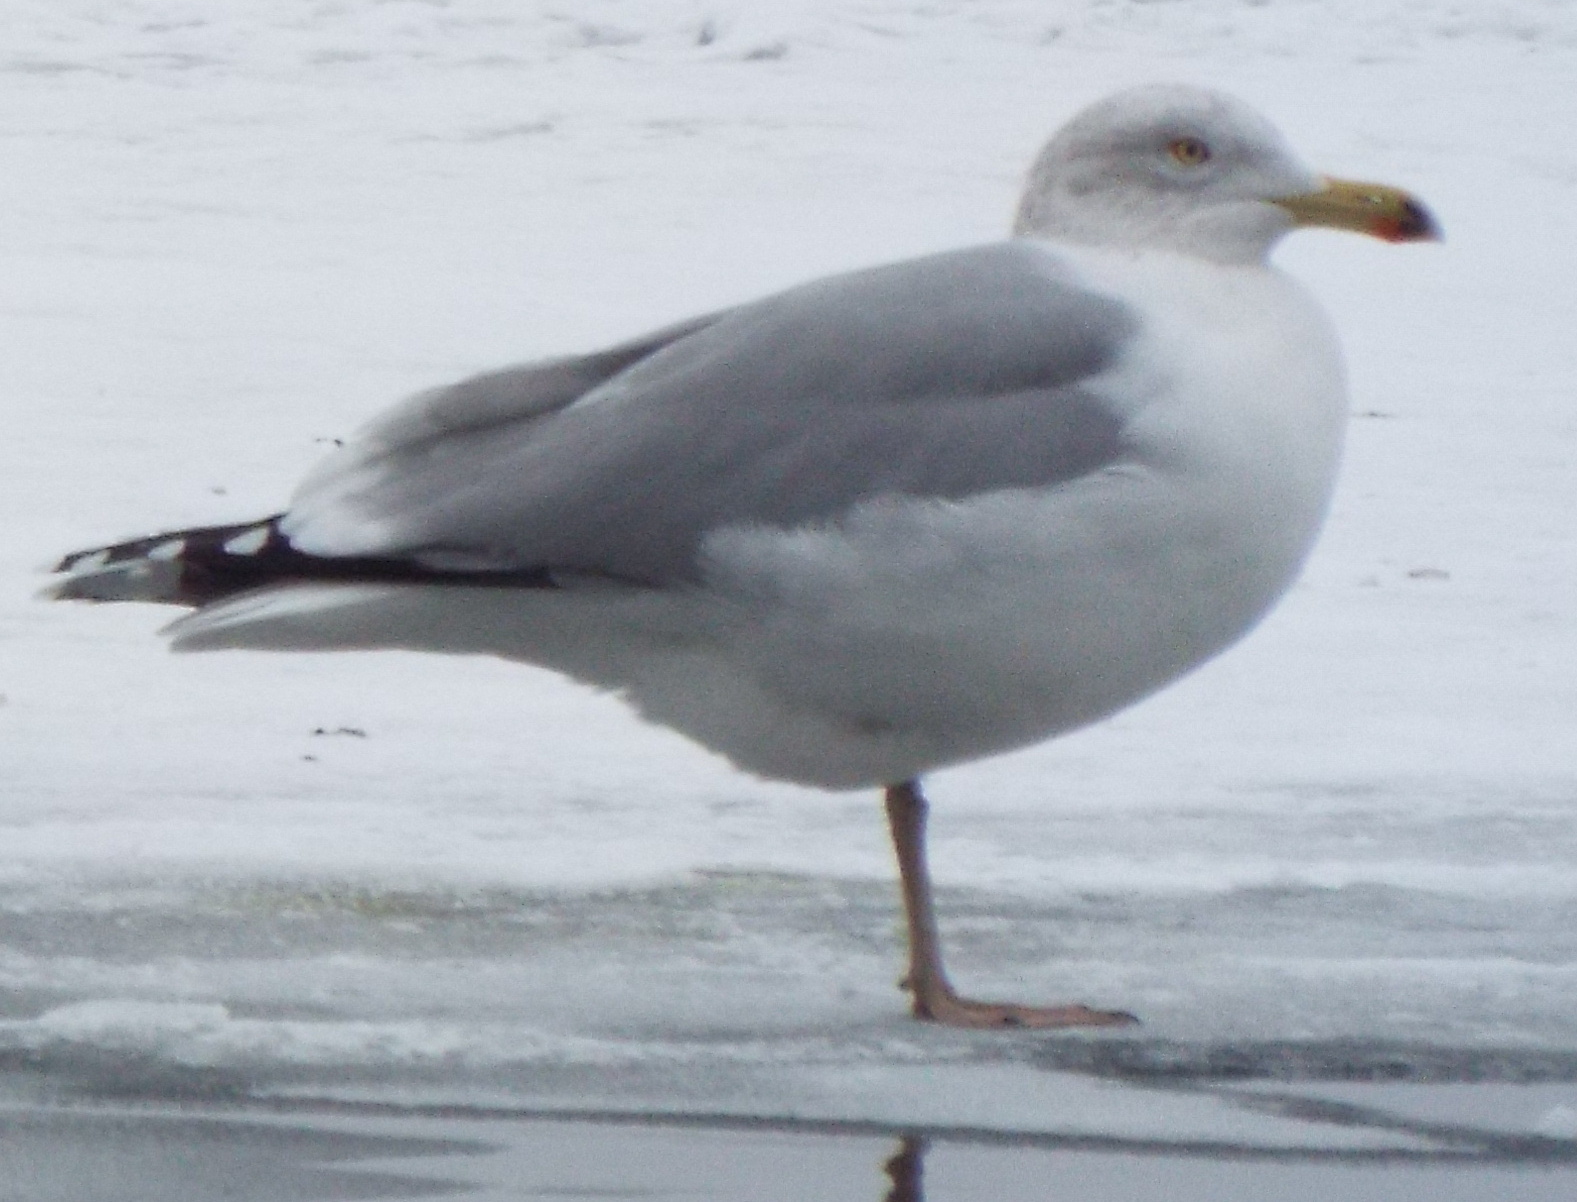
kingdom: Animalia
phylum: Chordata
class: Aves
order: Charadriiformes
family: Laridae
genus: Larus
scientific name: Larus argentatus
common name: Herring gull
